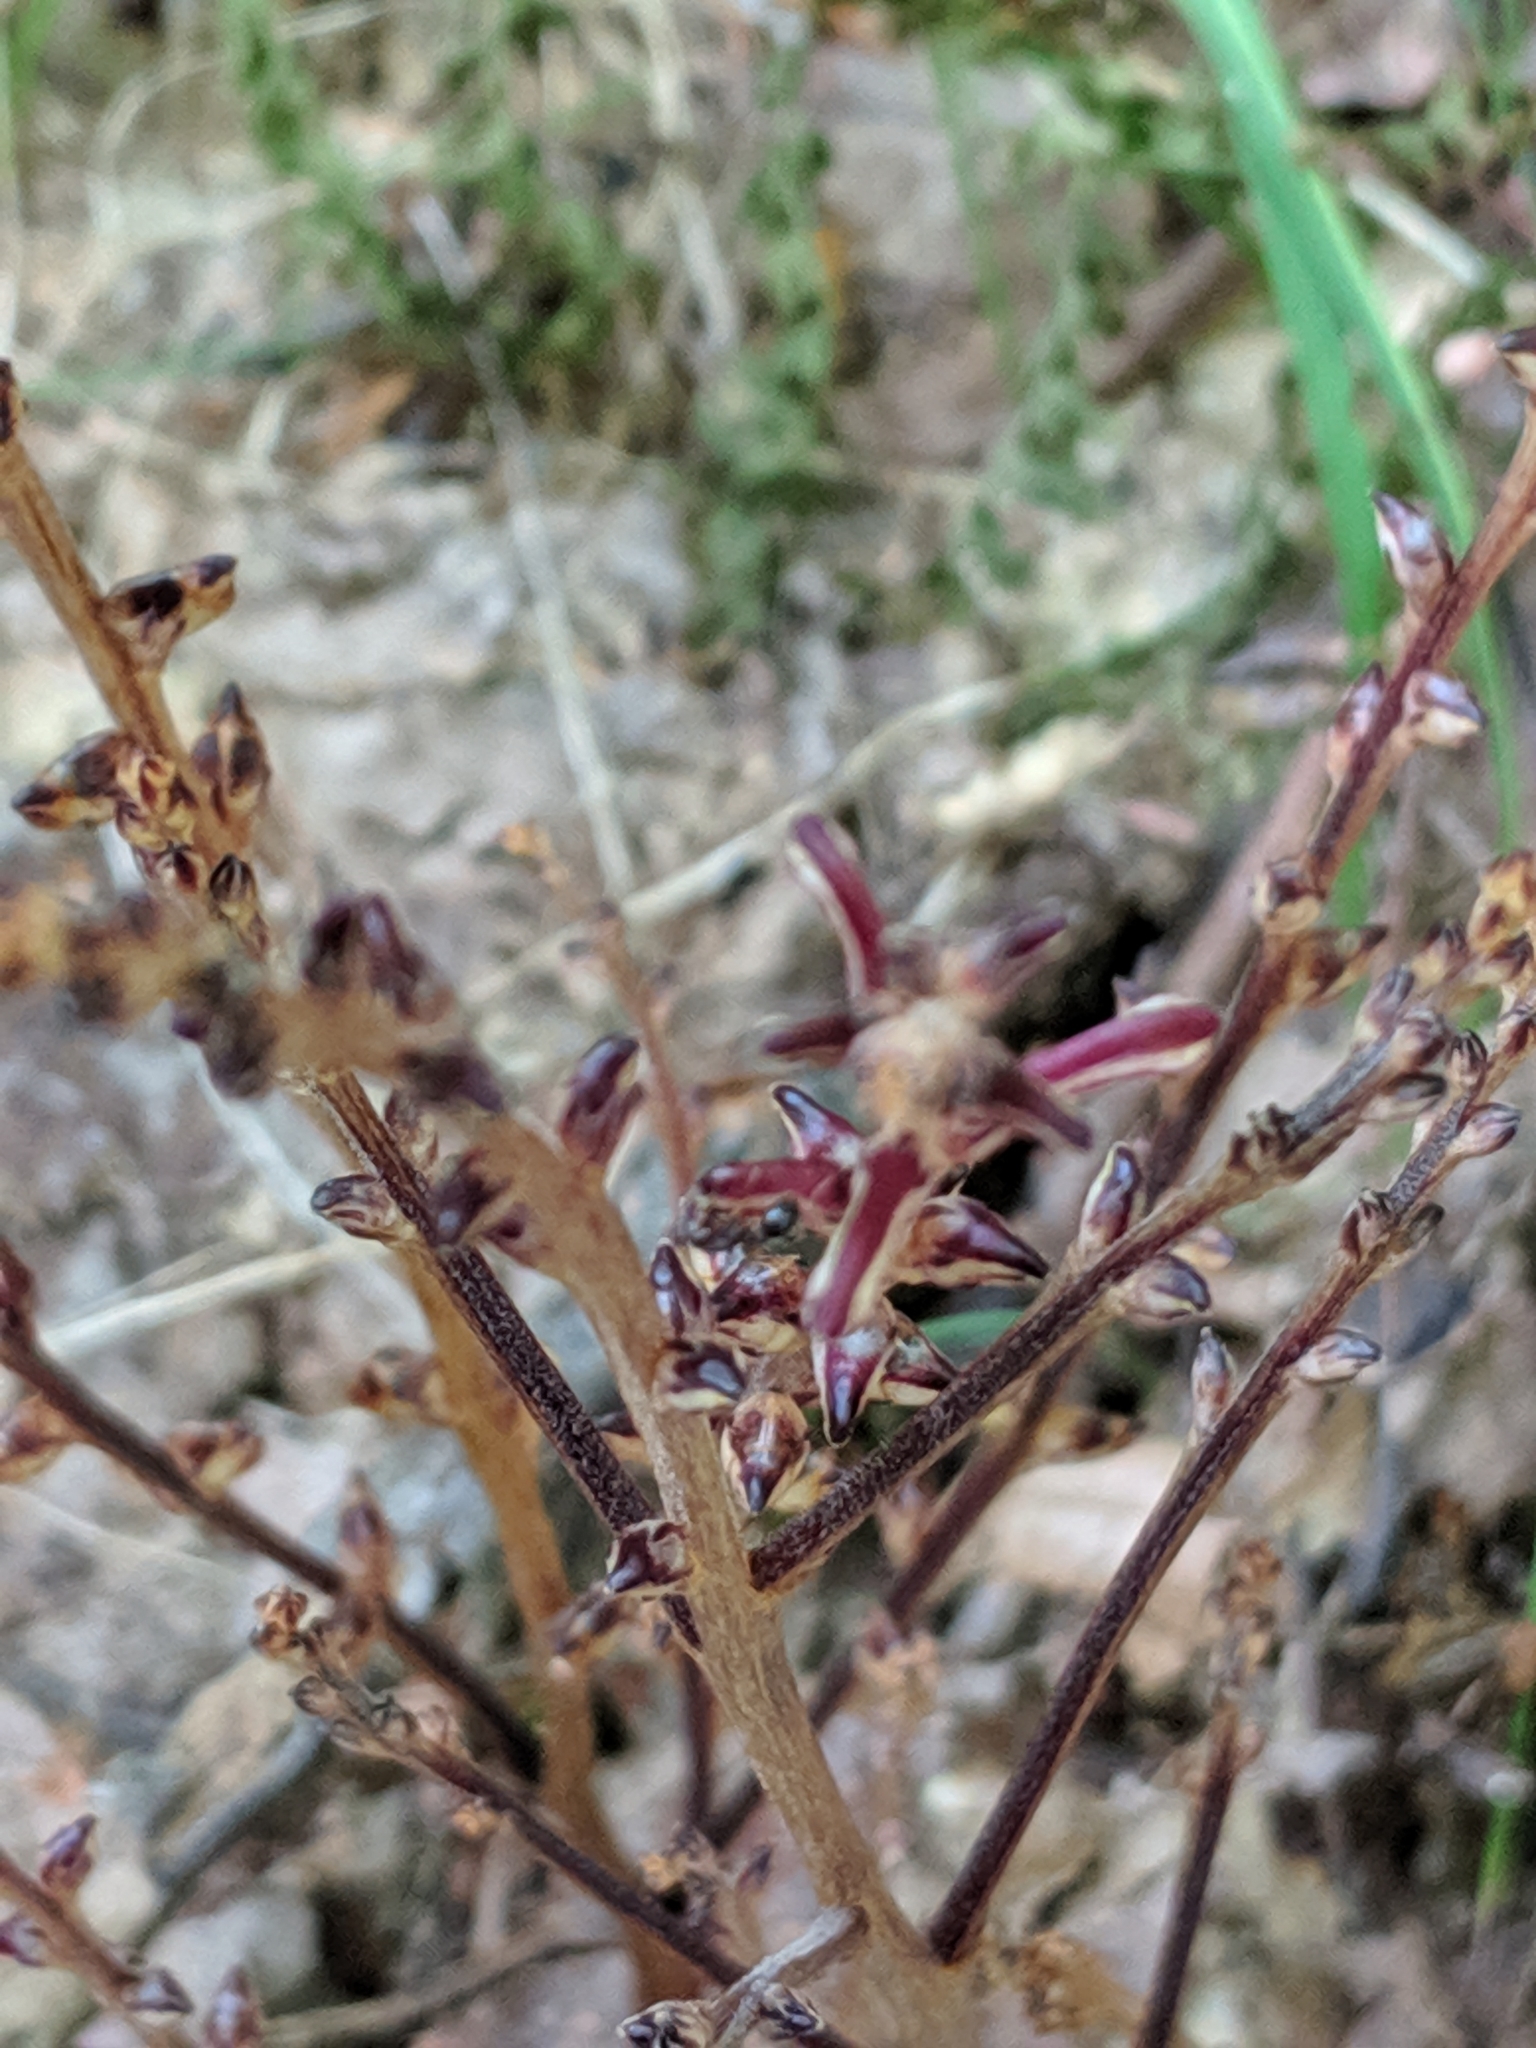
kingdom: Plantae
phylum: Tracheophyta
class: Magnoliopsida
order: Lamiales
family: Orobanchaceae
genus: Epifagus
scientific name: Epifagus virginiana
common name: Beechdrops
